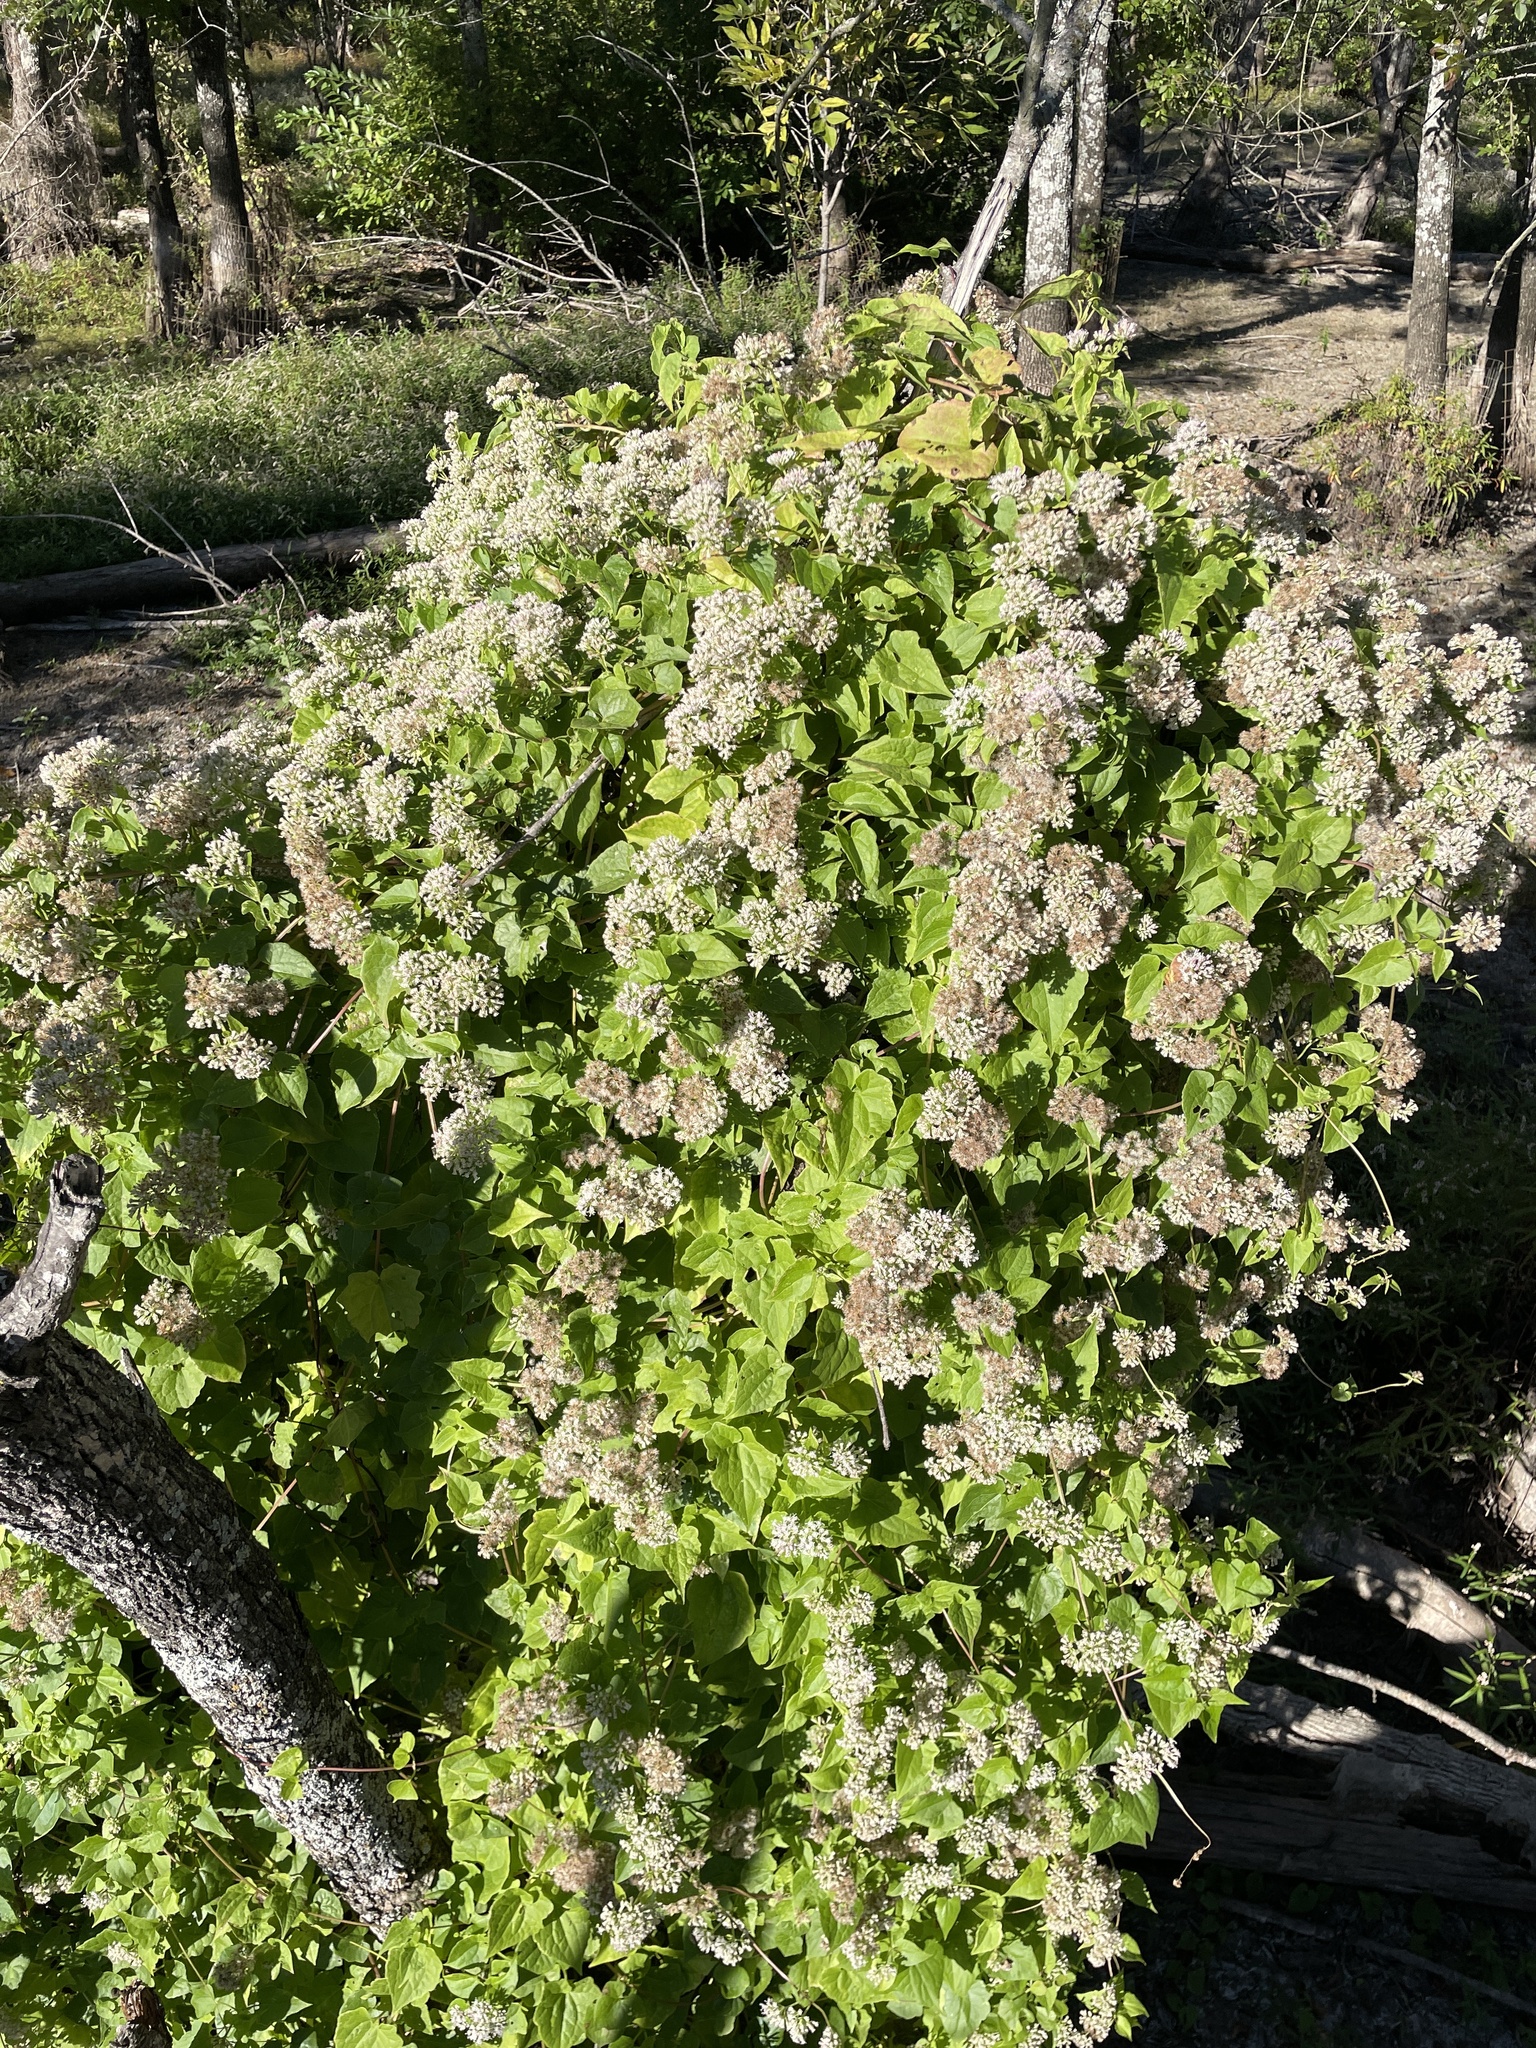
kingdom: Plantae
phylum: Tracheophyta
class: Magnoliopsida
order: Asterales
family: Asteraceae
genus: Mikania
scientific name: Mikania scandens
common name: Climbing hempvine
